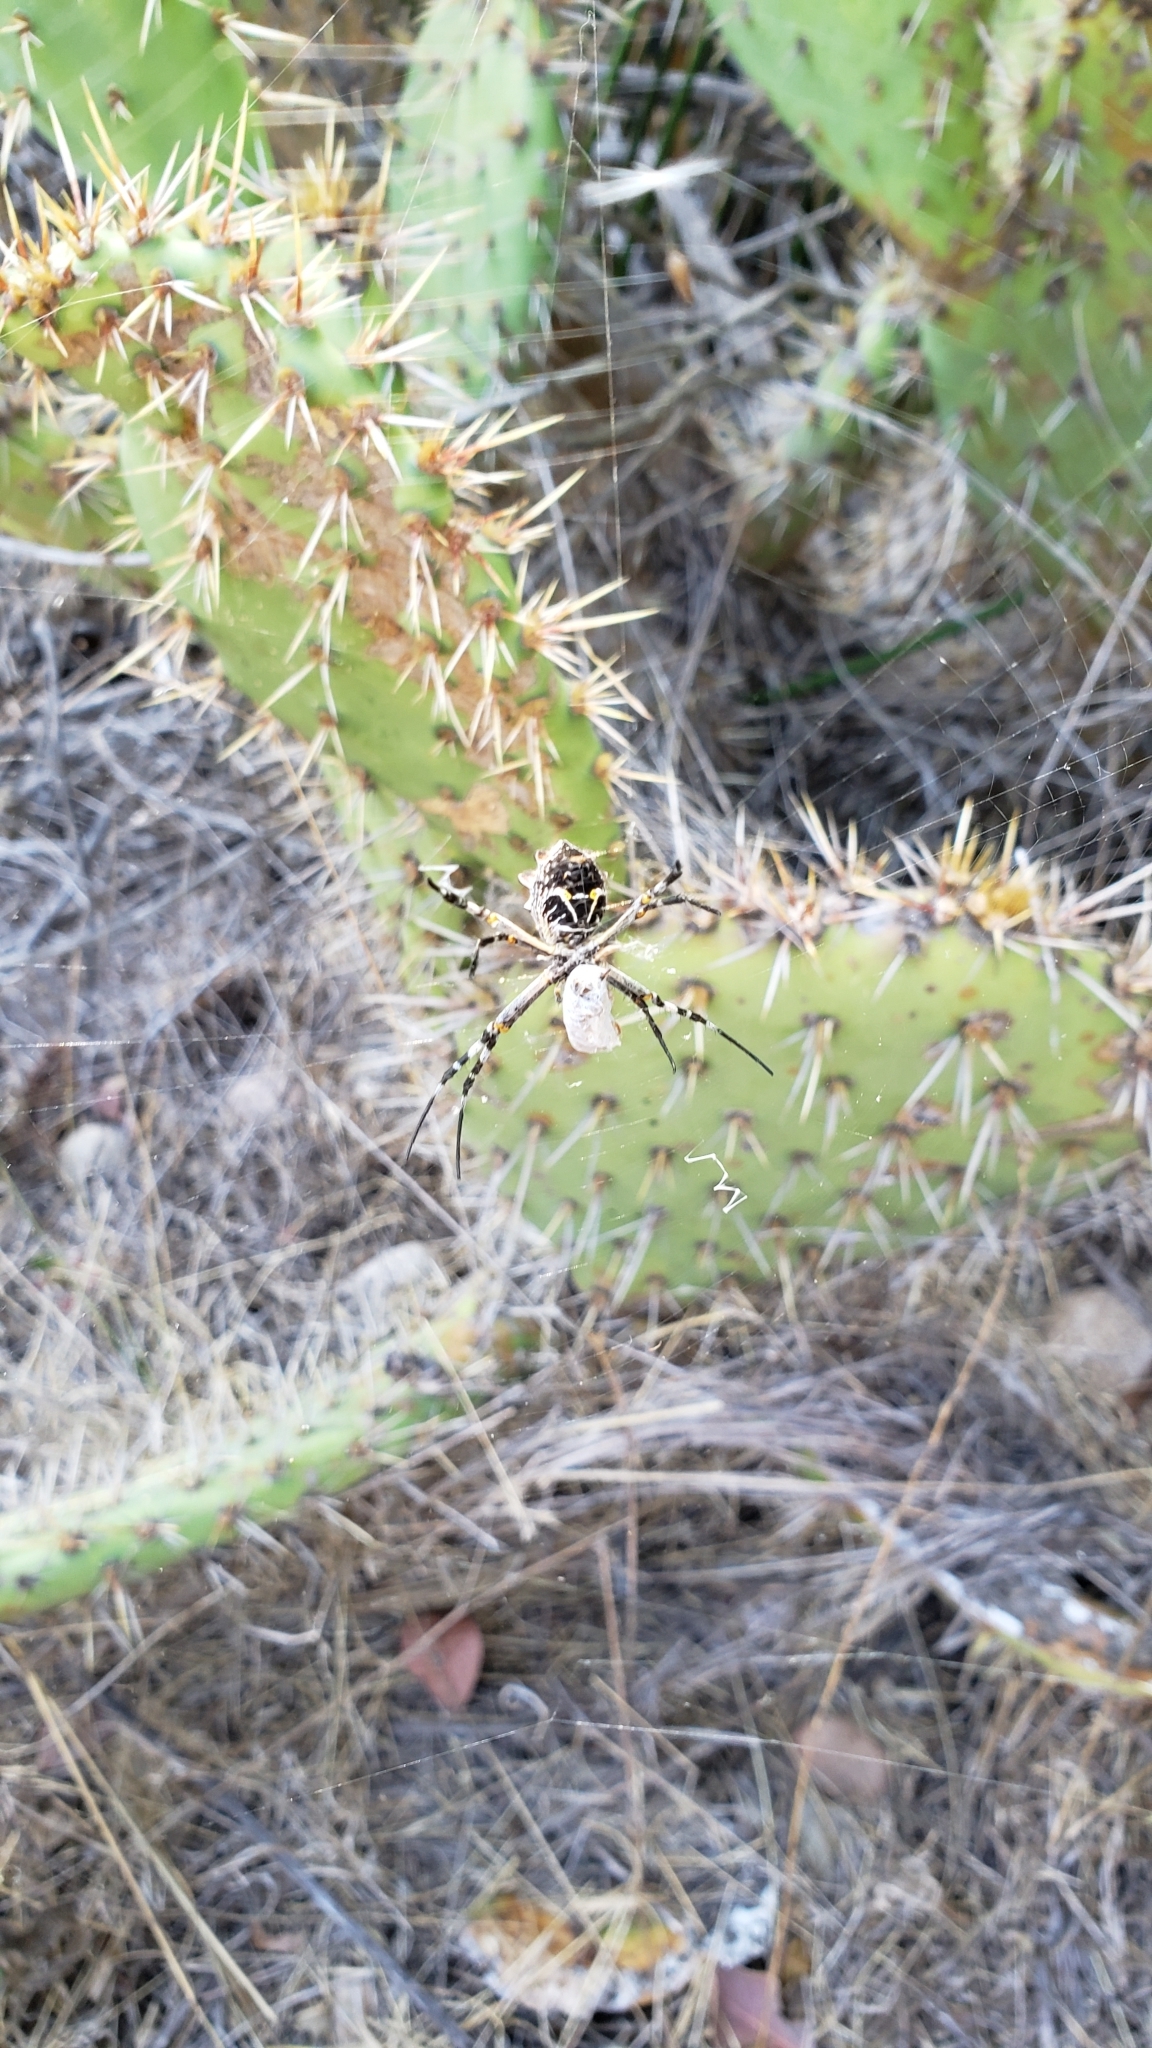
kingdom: Animalia
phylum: Arthropoda
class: Arachnida
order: Araneae
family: Araneidae
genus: Argiope
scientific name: Argiope argentata
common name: Orb weavers
